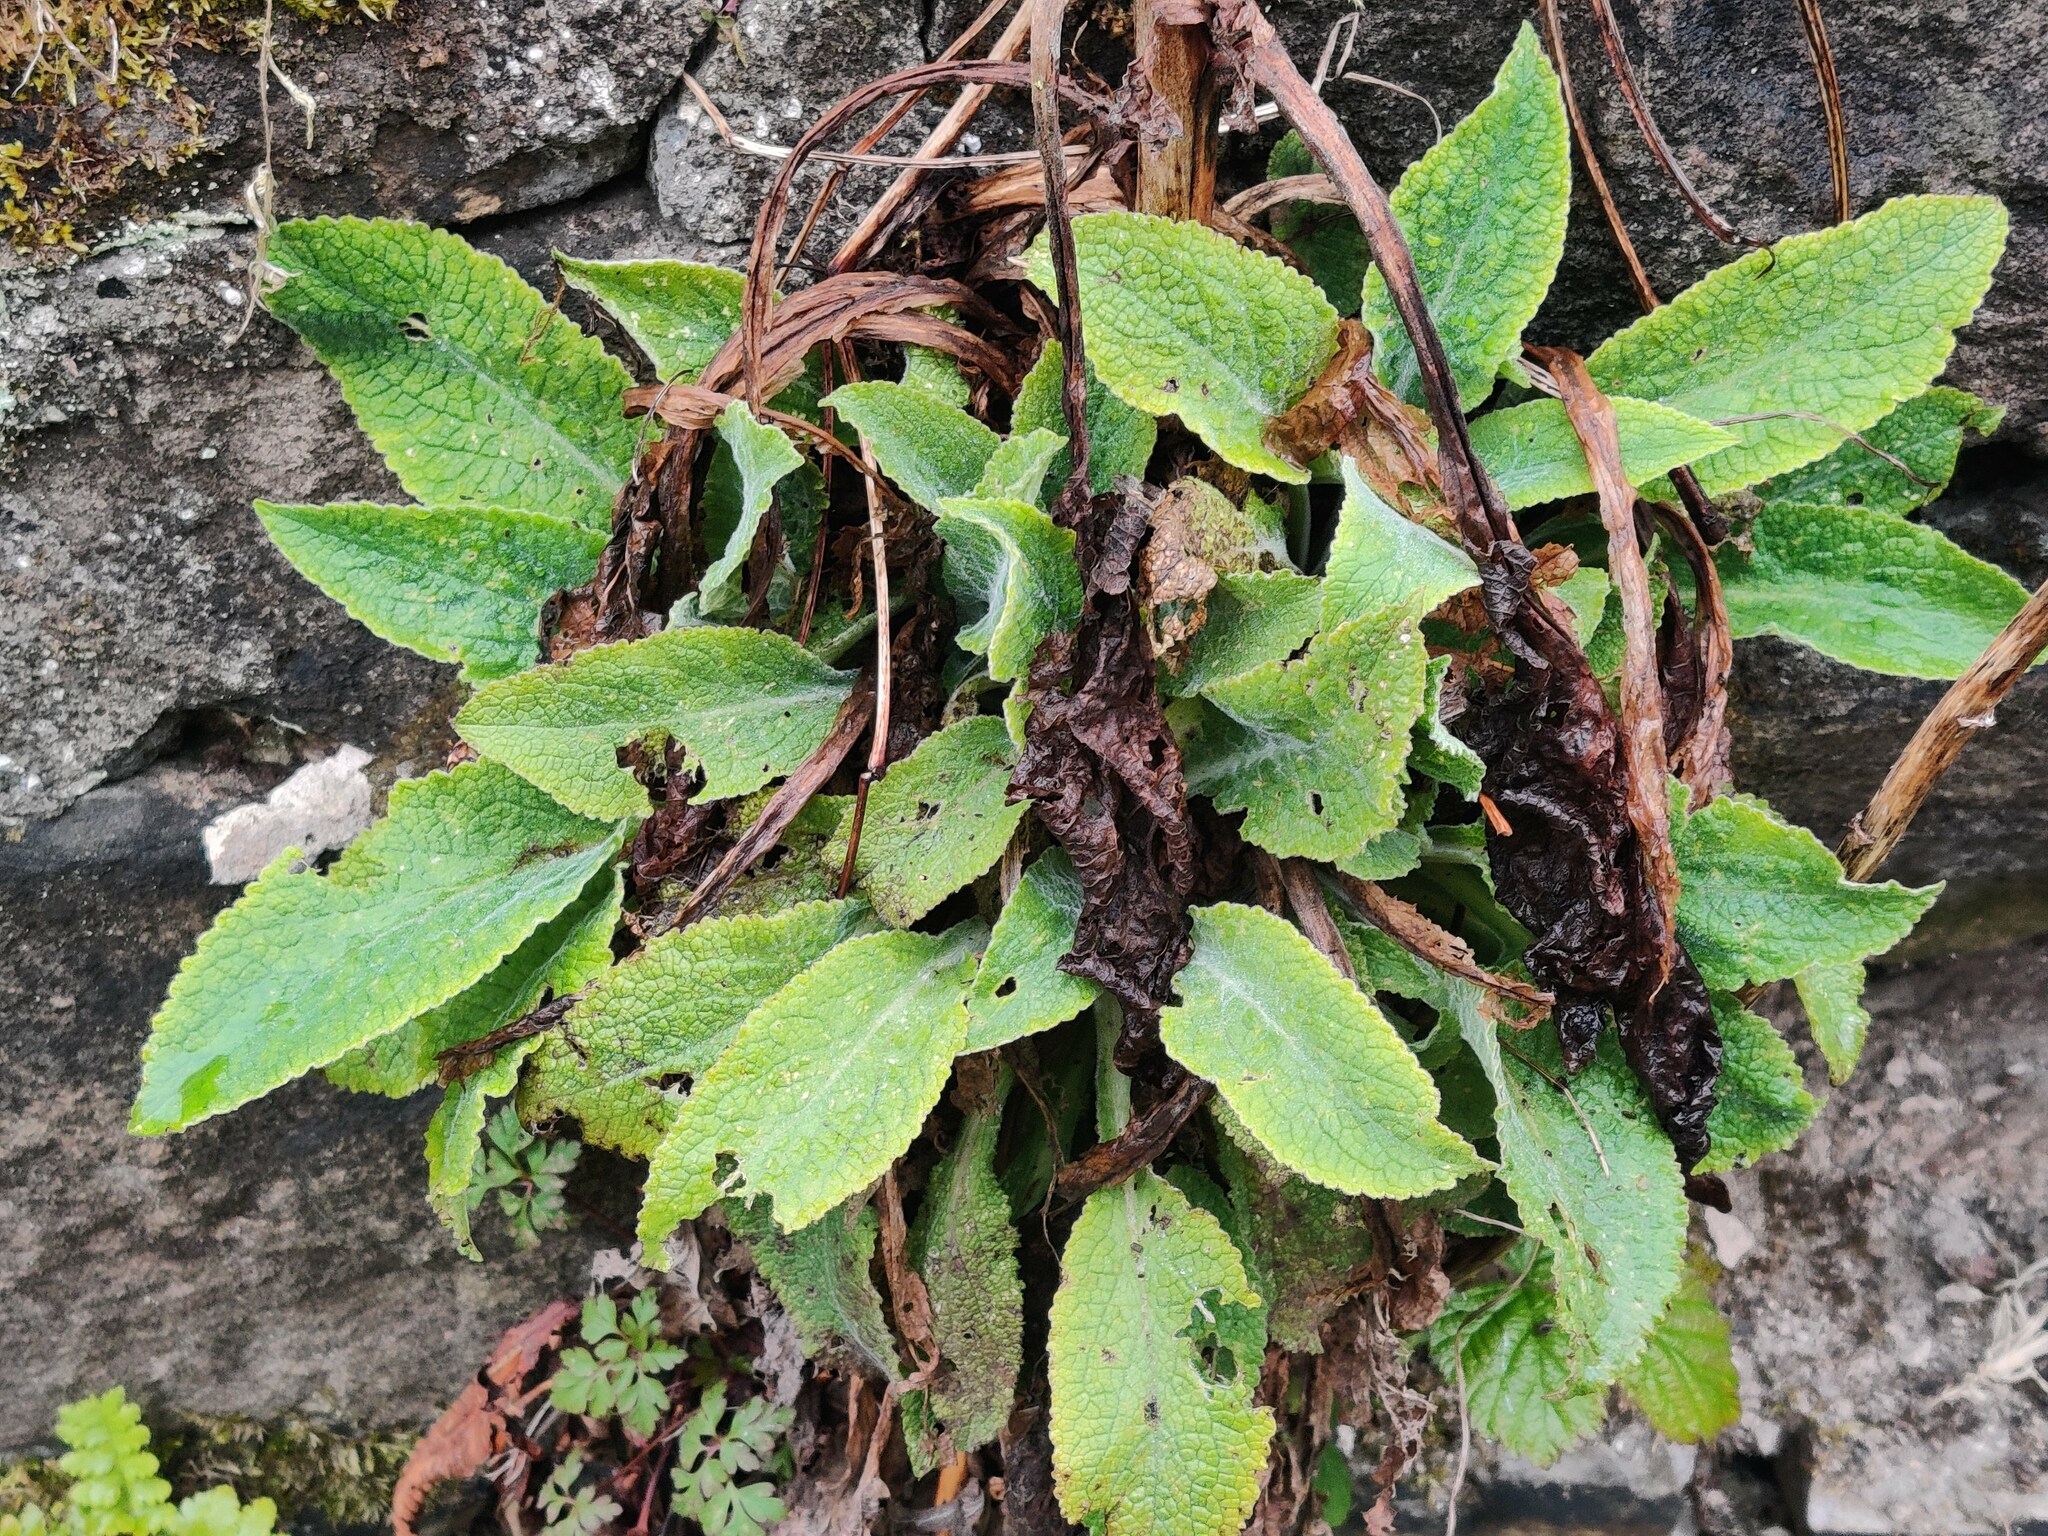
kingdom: Plantae
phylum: Tracheophyta
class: Magnoliopsida
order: Lamiales
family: Plantaginaceae
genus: Digitalis
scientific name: Digitalis purpurea
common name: Foxglove
